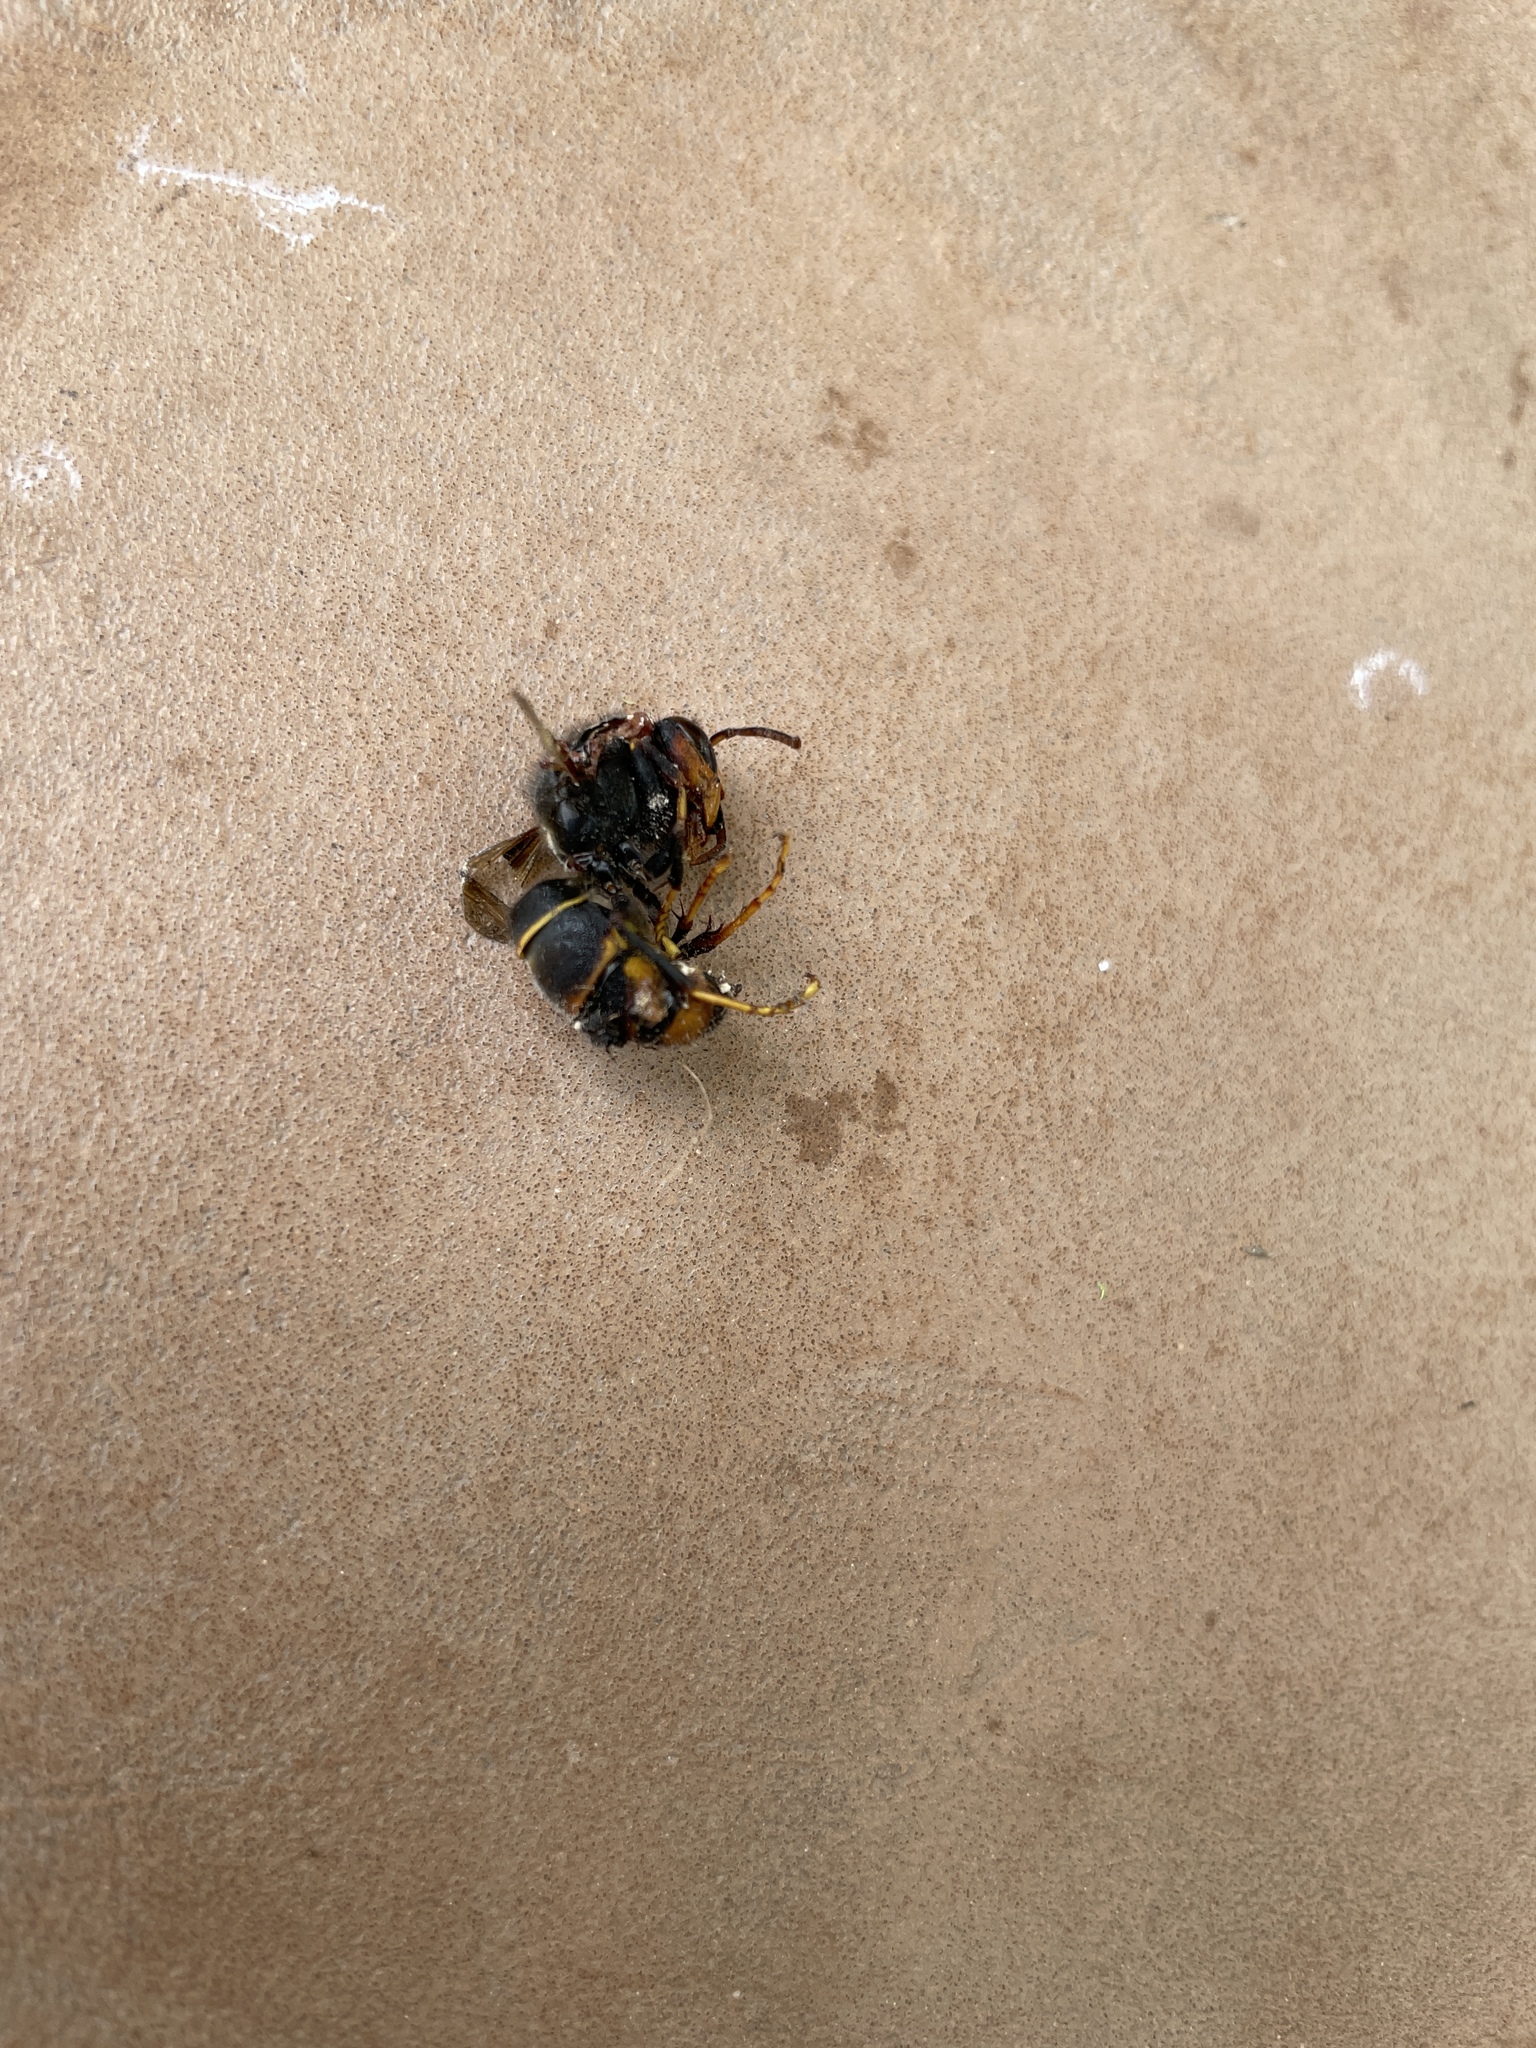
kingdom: Animalia
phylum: Arthropoda
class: Insecta
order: Hymenoptera
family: Vespidae
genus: Vespa
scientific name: Vespa velutina
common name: Asian hornet
